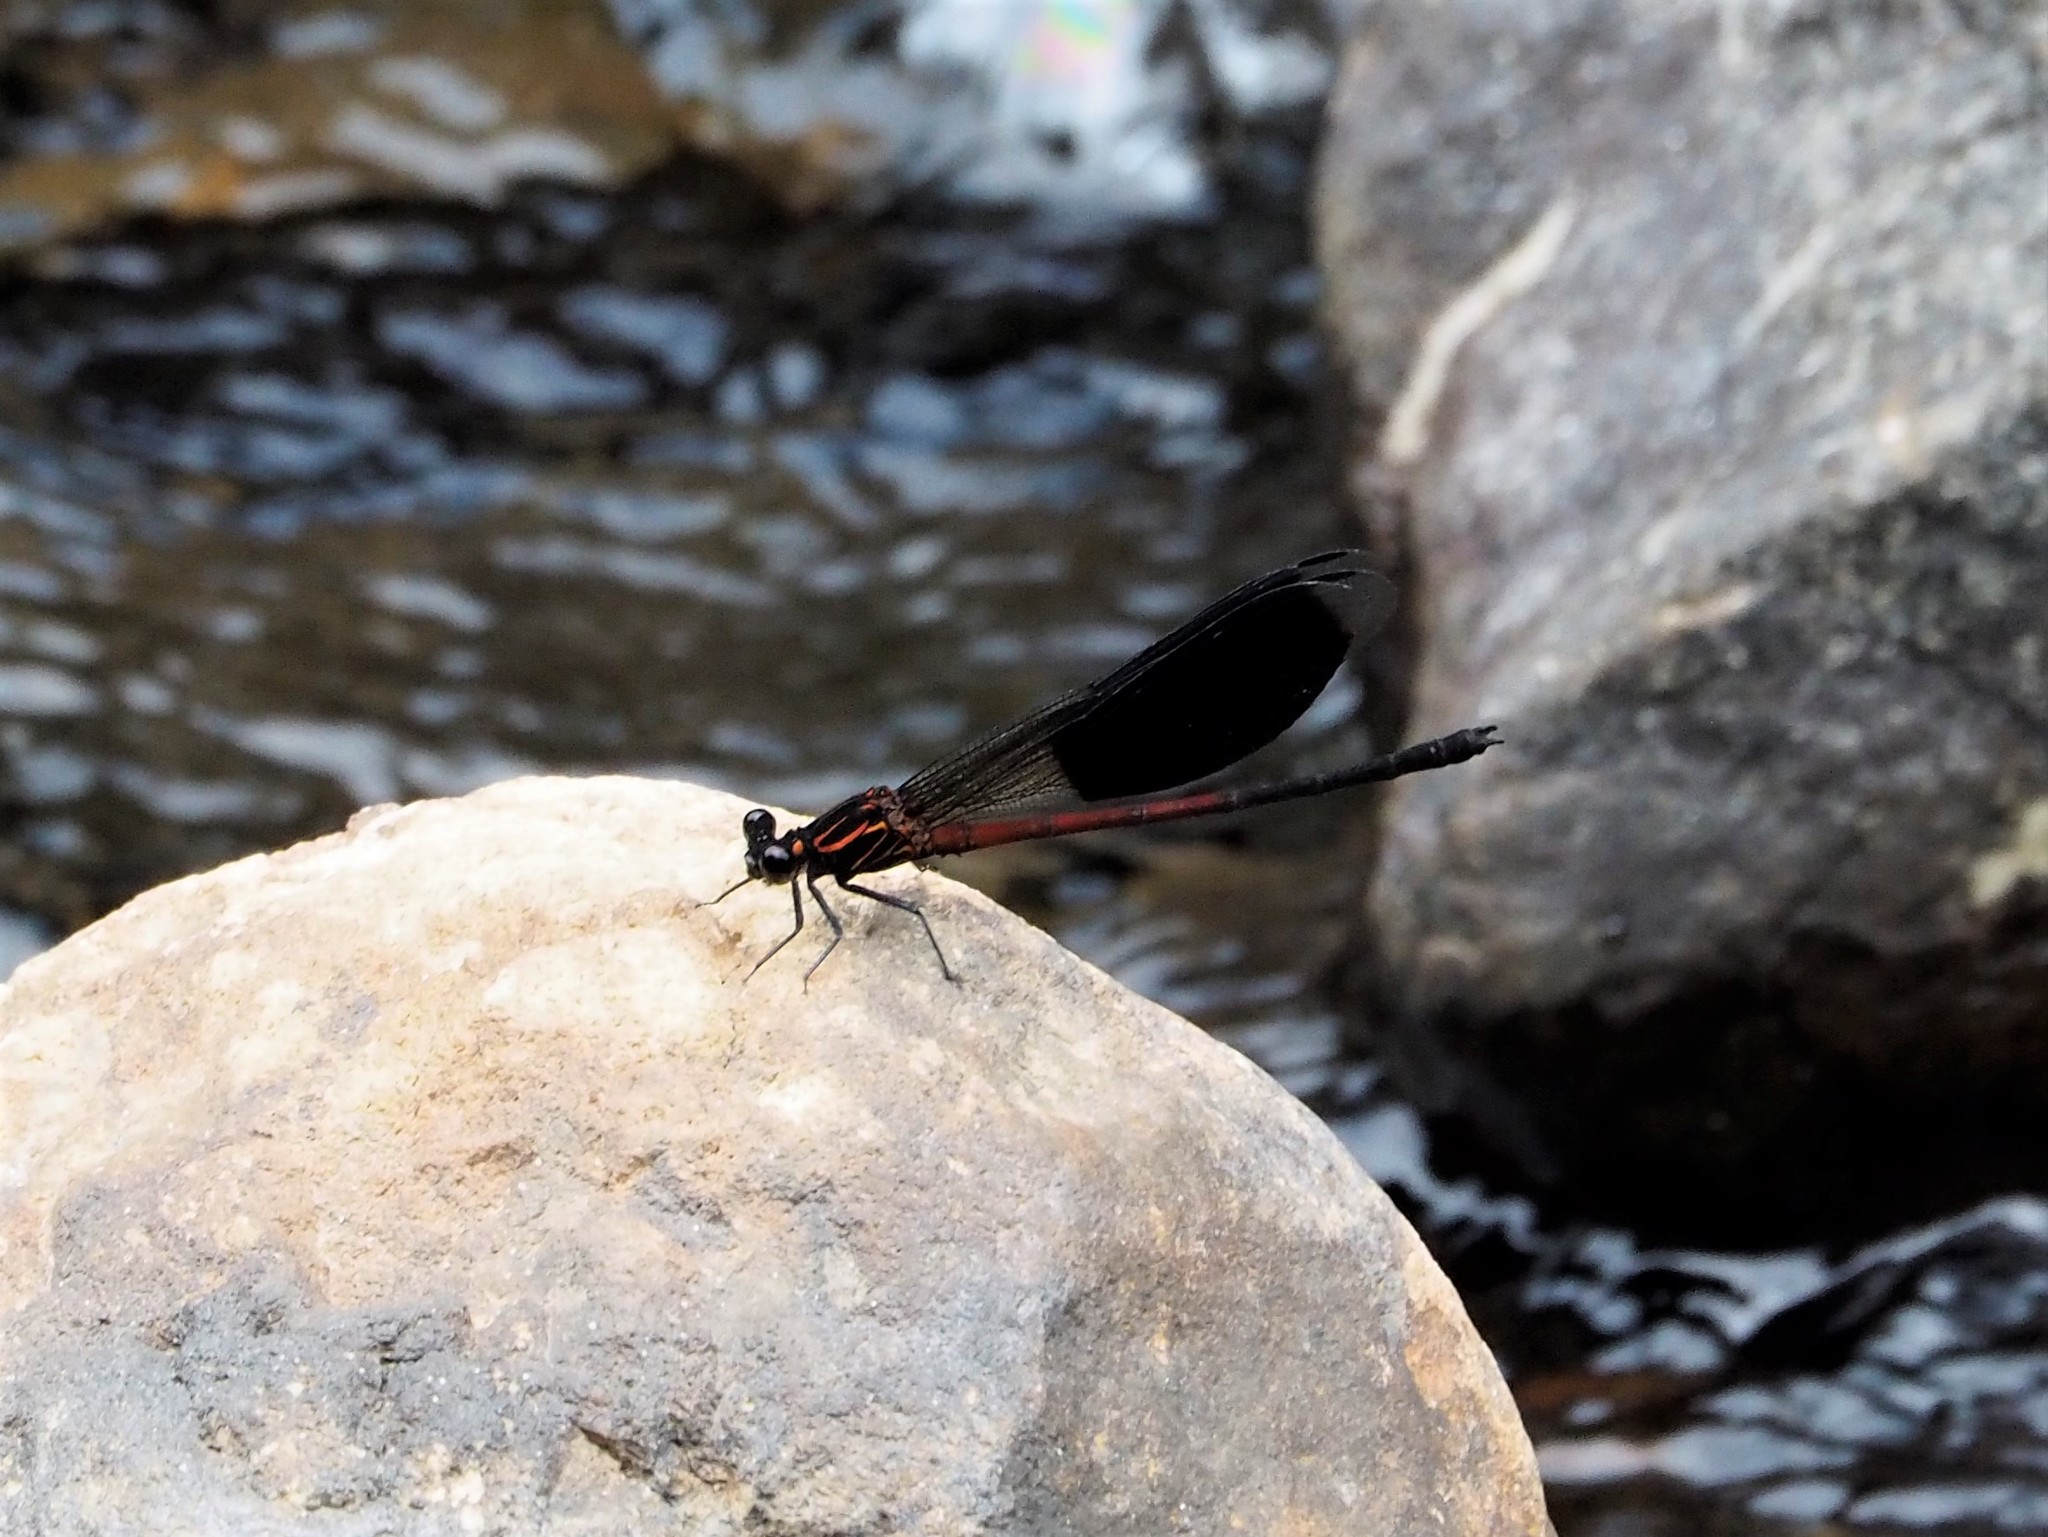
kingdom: Animalia
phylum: Arthropoda
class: Insecta
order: Odonata
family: Euphaeidae
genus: Euphaea
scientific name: Euphaea formosa
